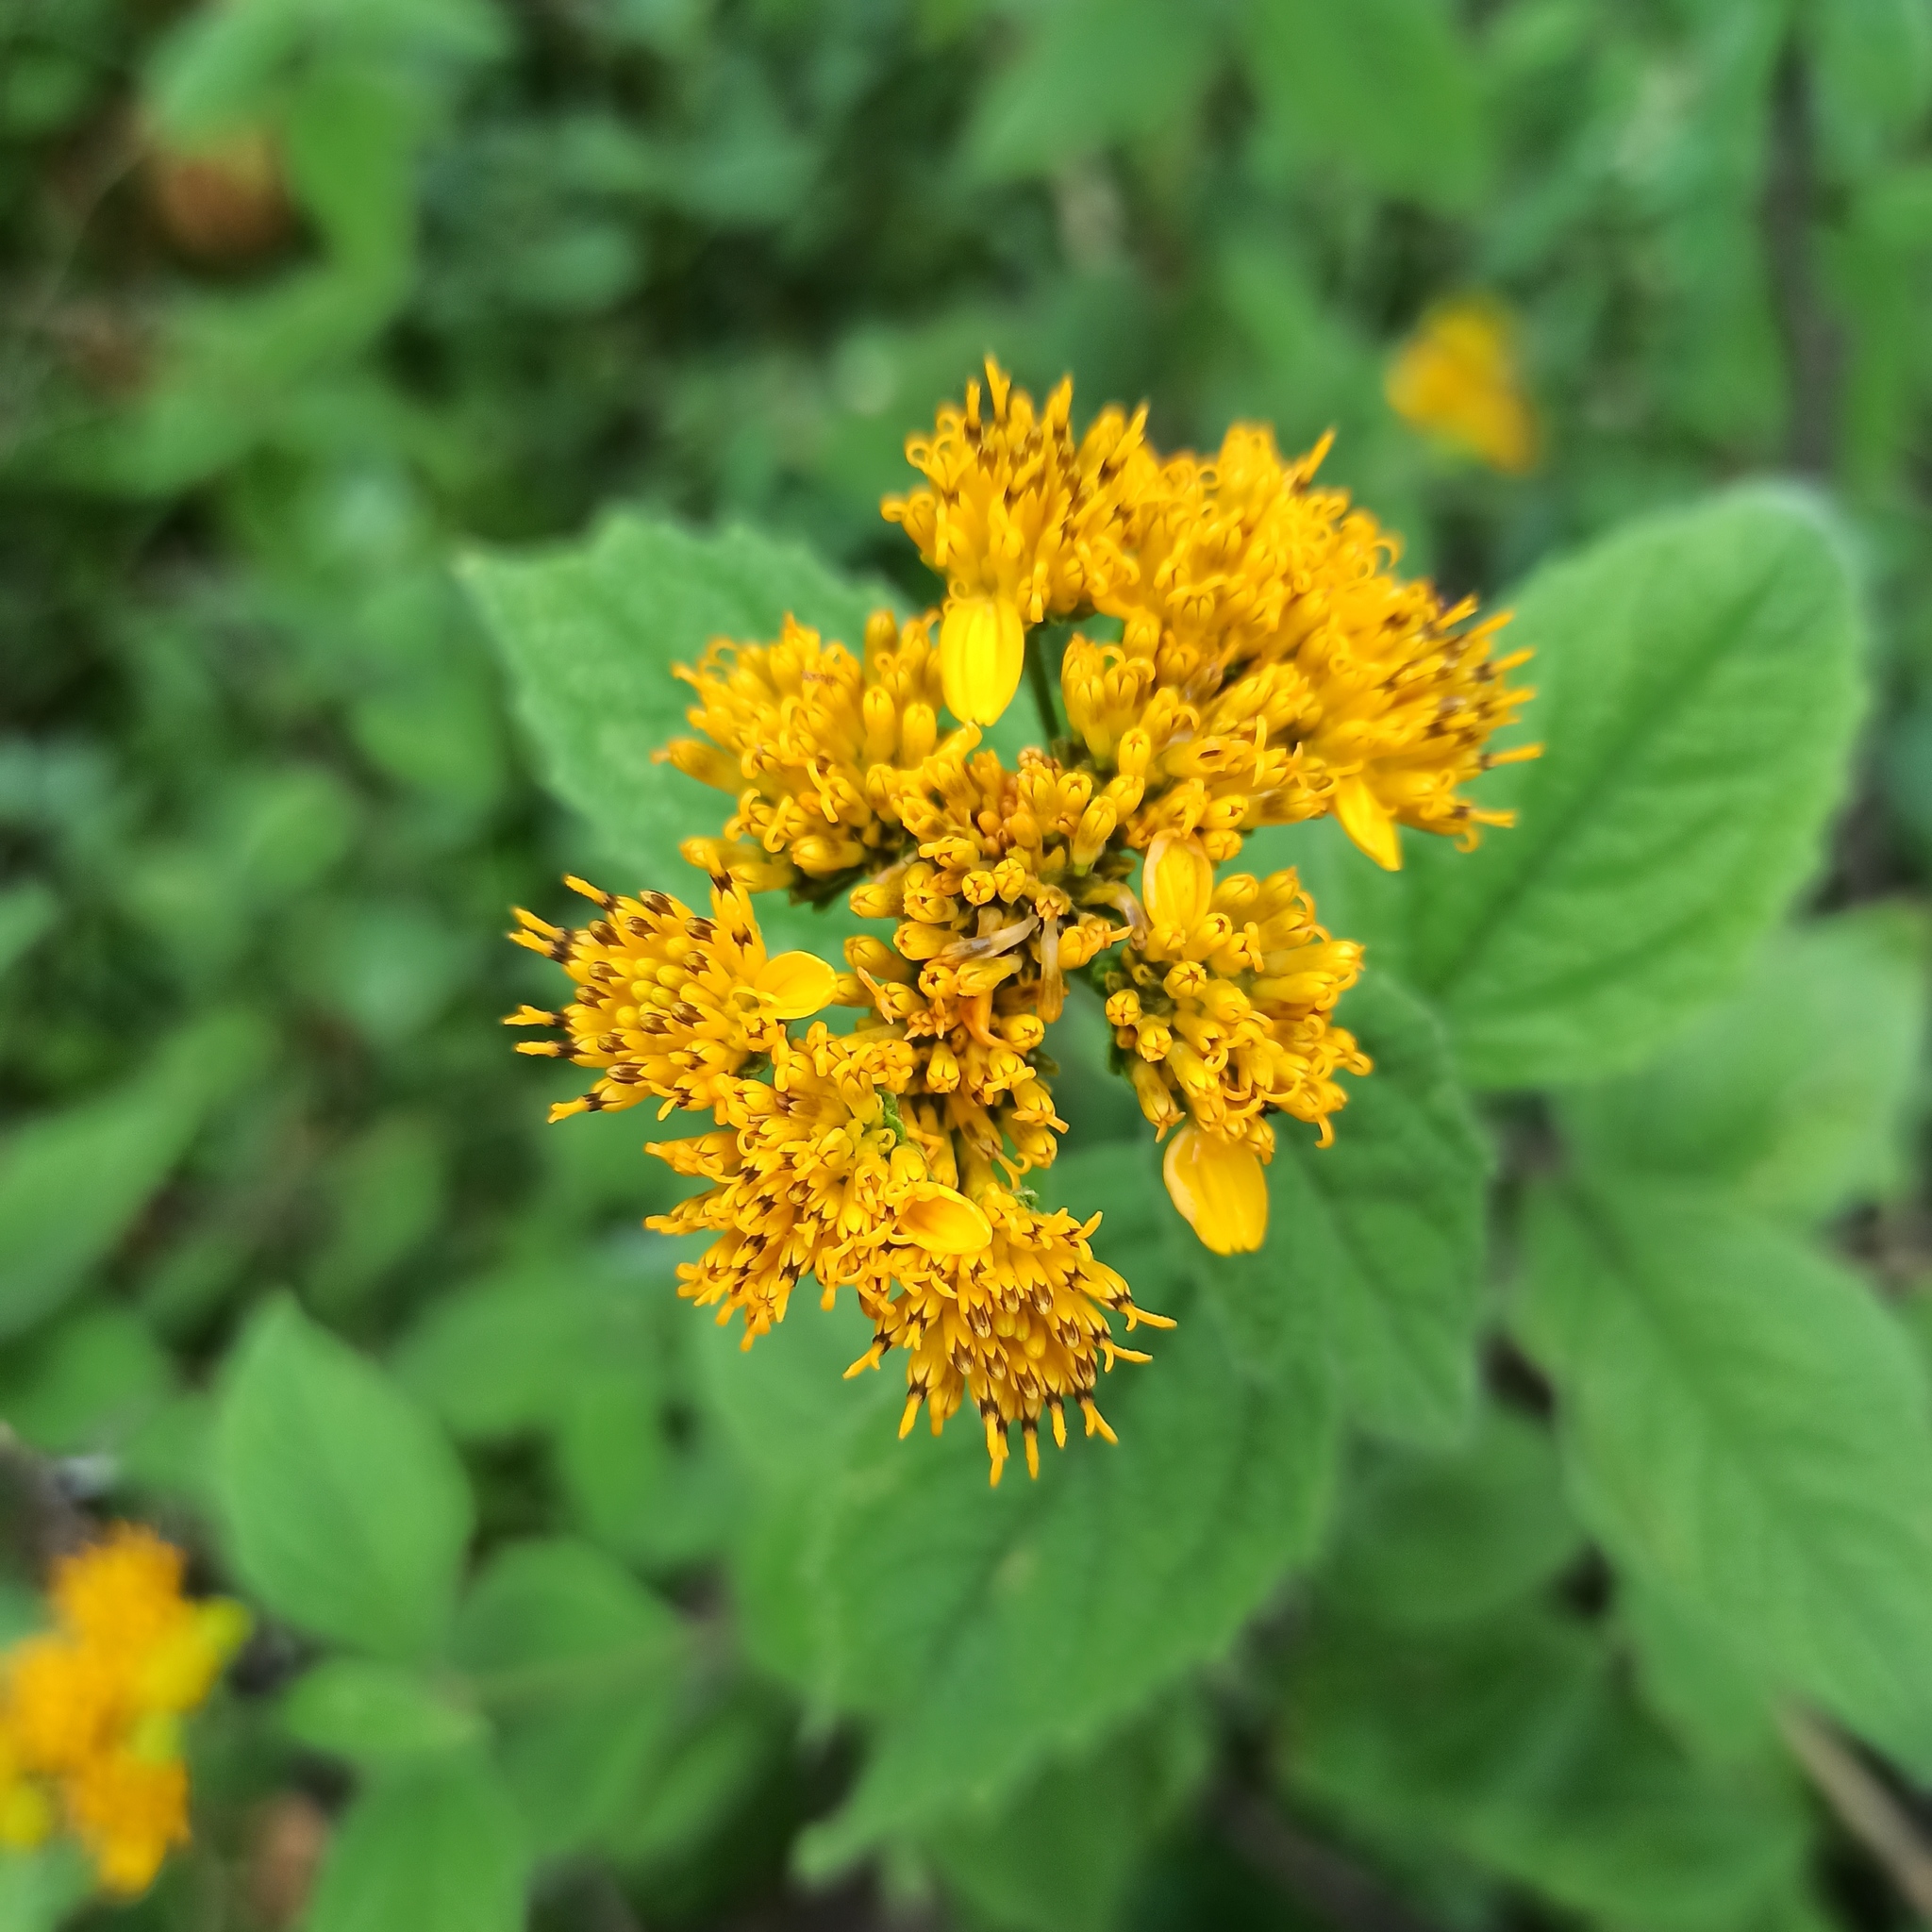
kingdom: Plantae
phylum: Tracheophyta
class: Magnoliopsida
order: Asterales
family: Asteraceae
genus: Verbesina
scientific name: Verbesina serrata
